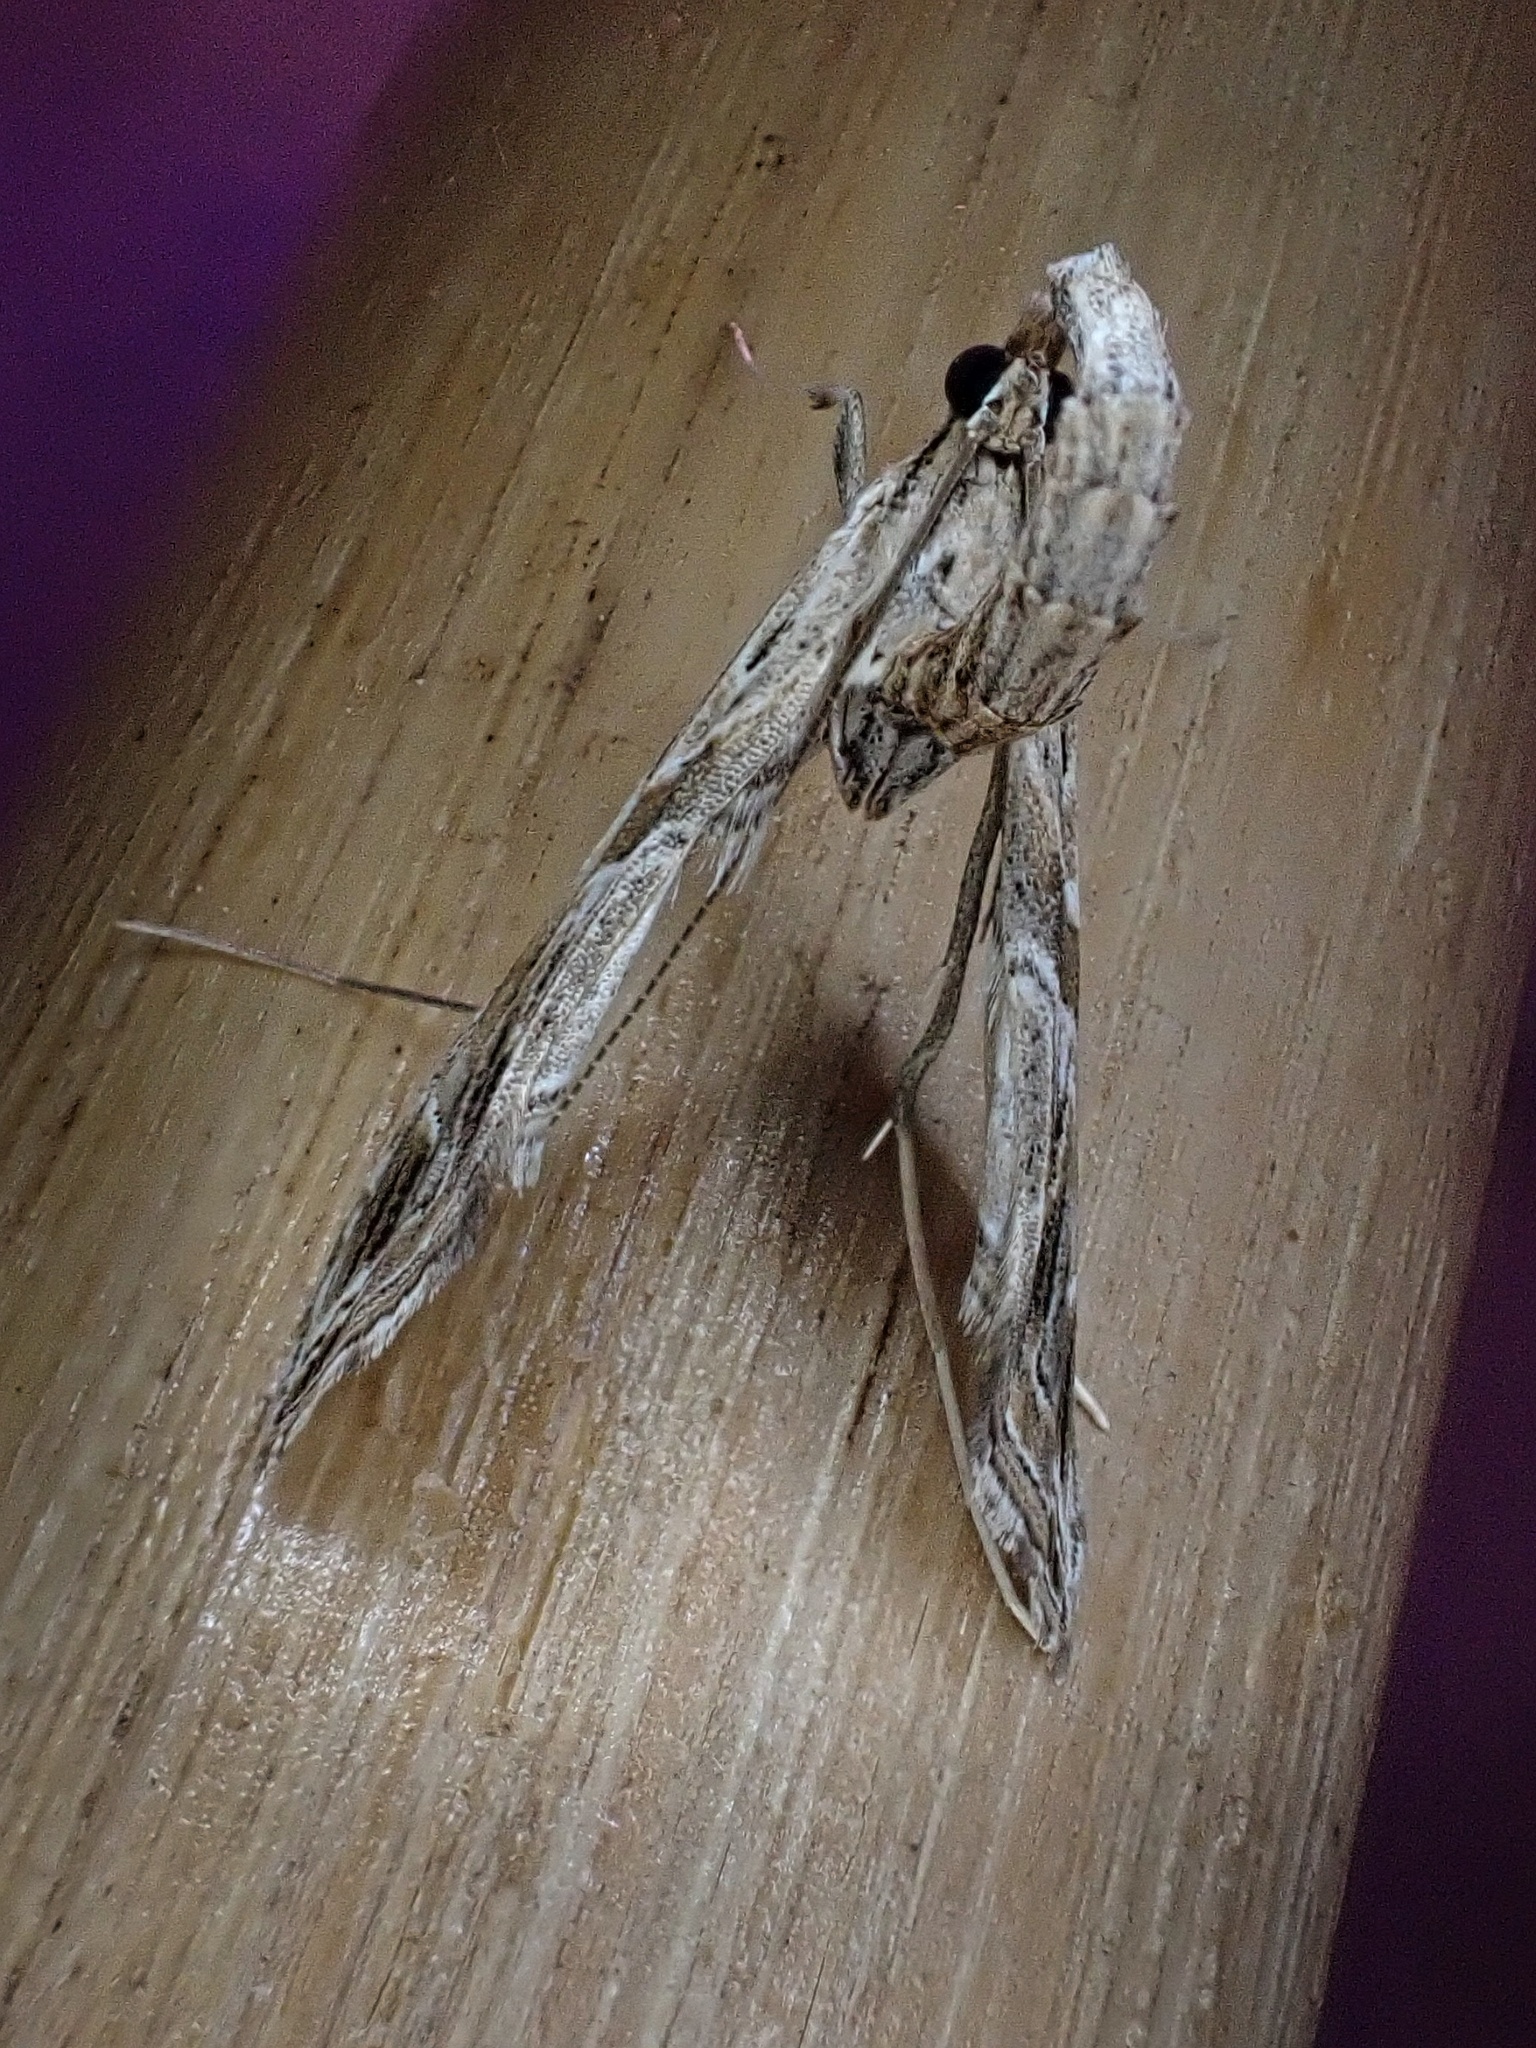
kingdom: Animalia
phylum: Arthropoda
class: Insecta
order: Lepidoptera
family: Crambidae
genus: Lineodes
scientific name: Lineodes integra
